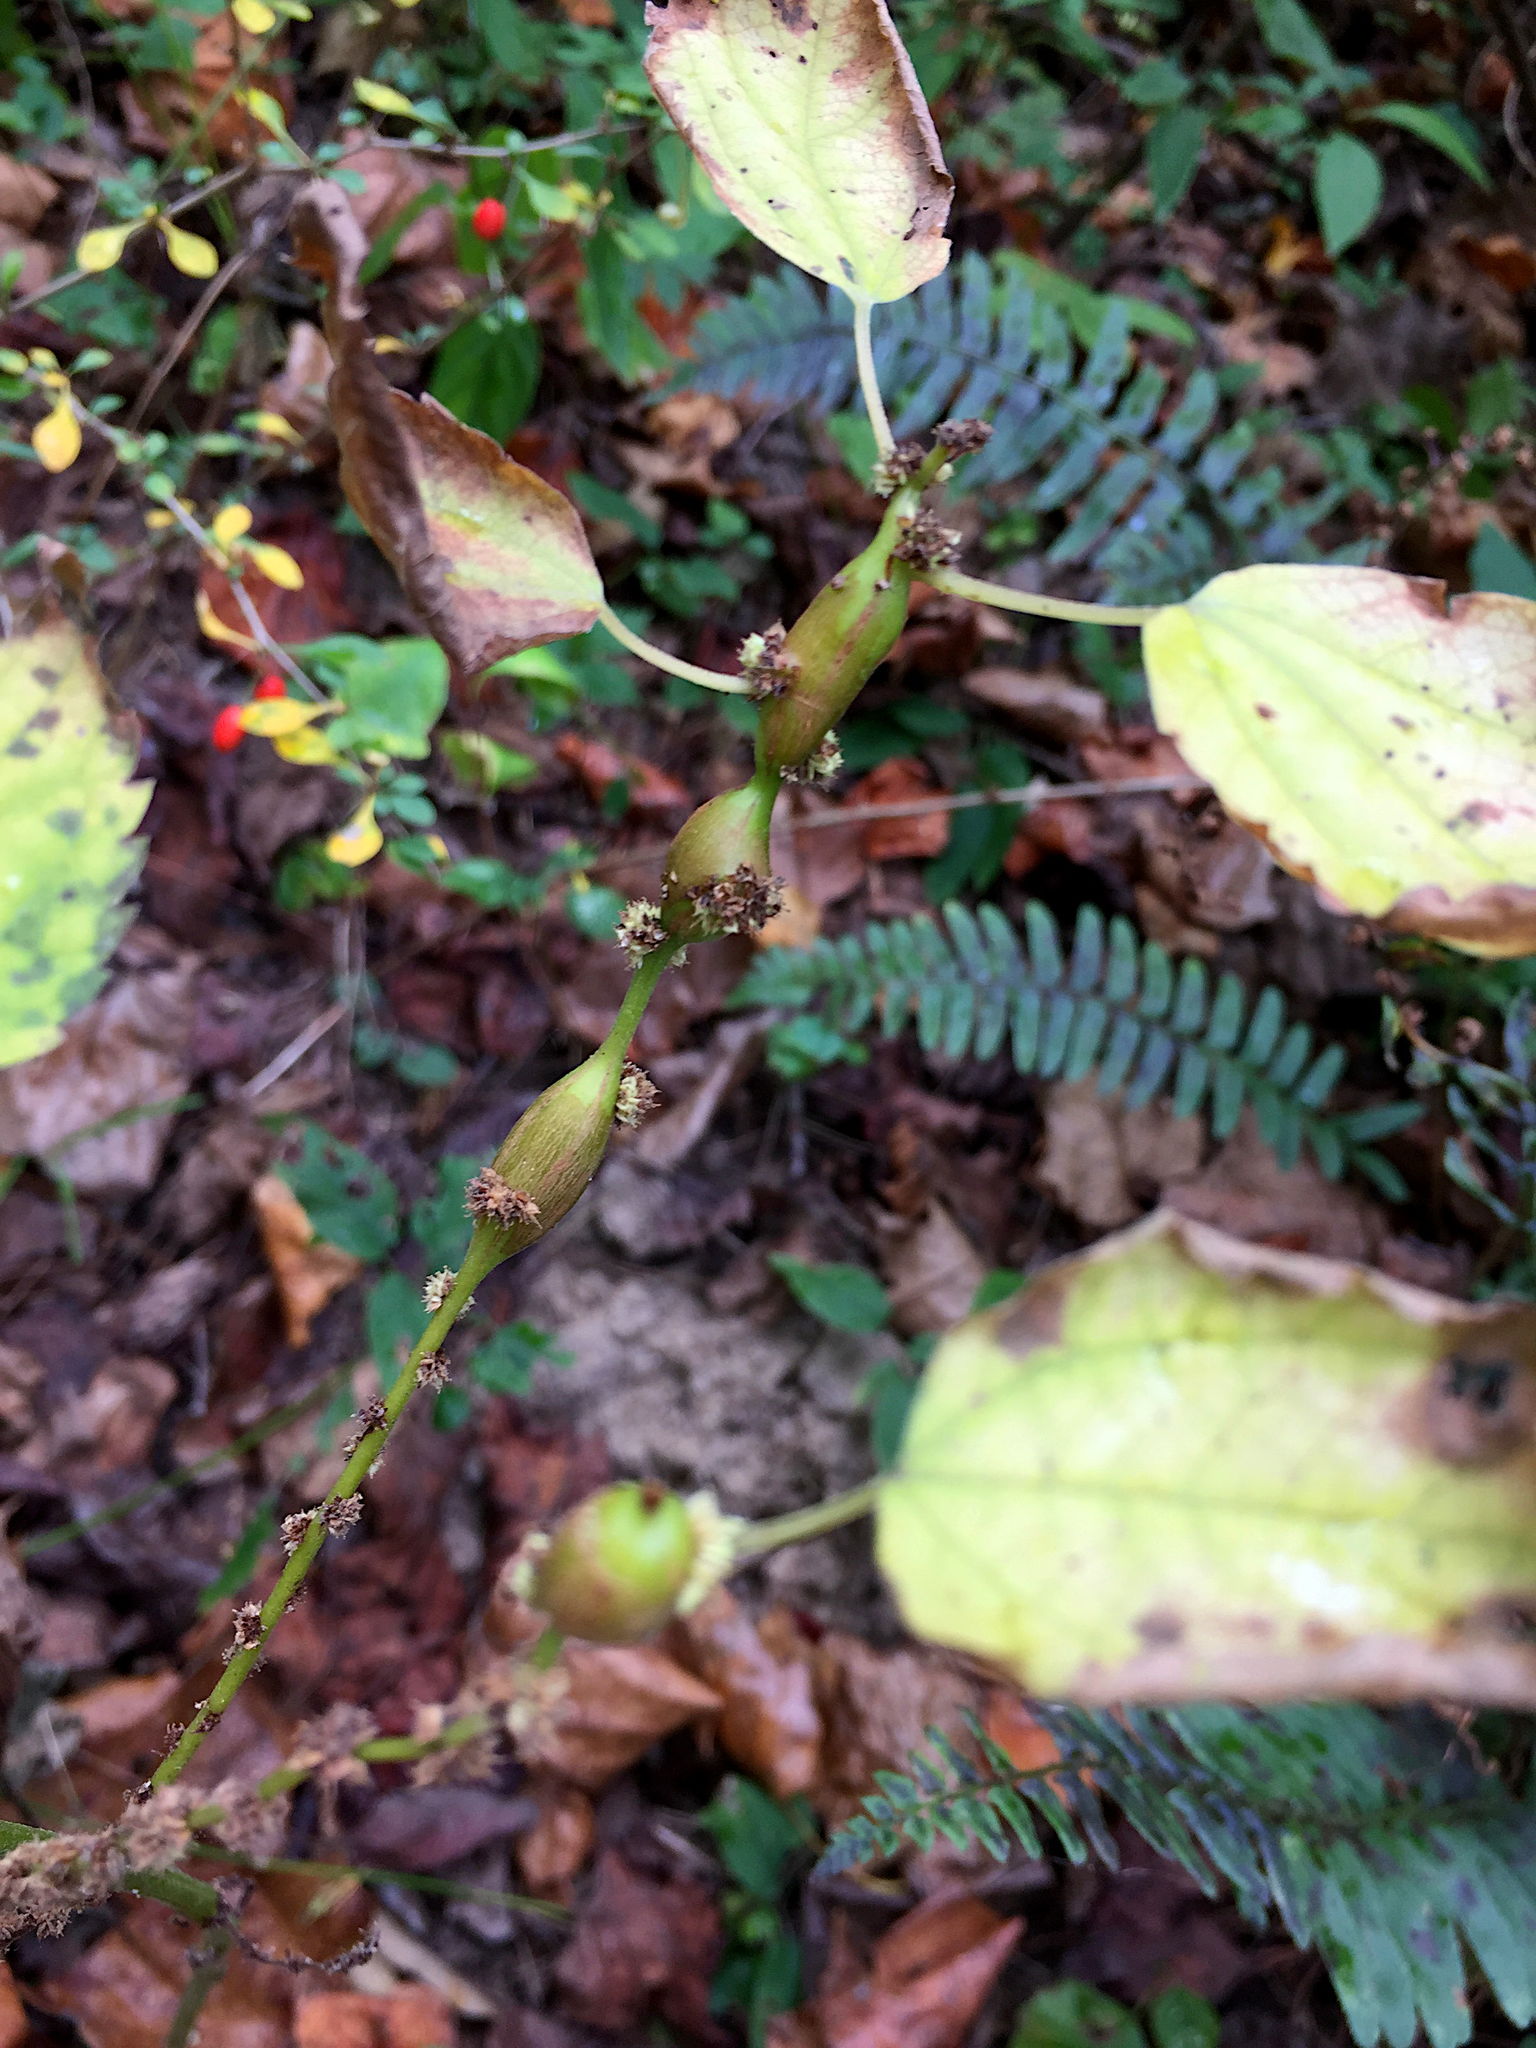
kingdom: Animalia
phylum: Arthropoda
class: Insecta
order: Diptera
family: Cecidomyiidae
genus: Neolasioptera
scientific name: Neolasioptera boehmeriae
